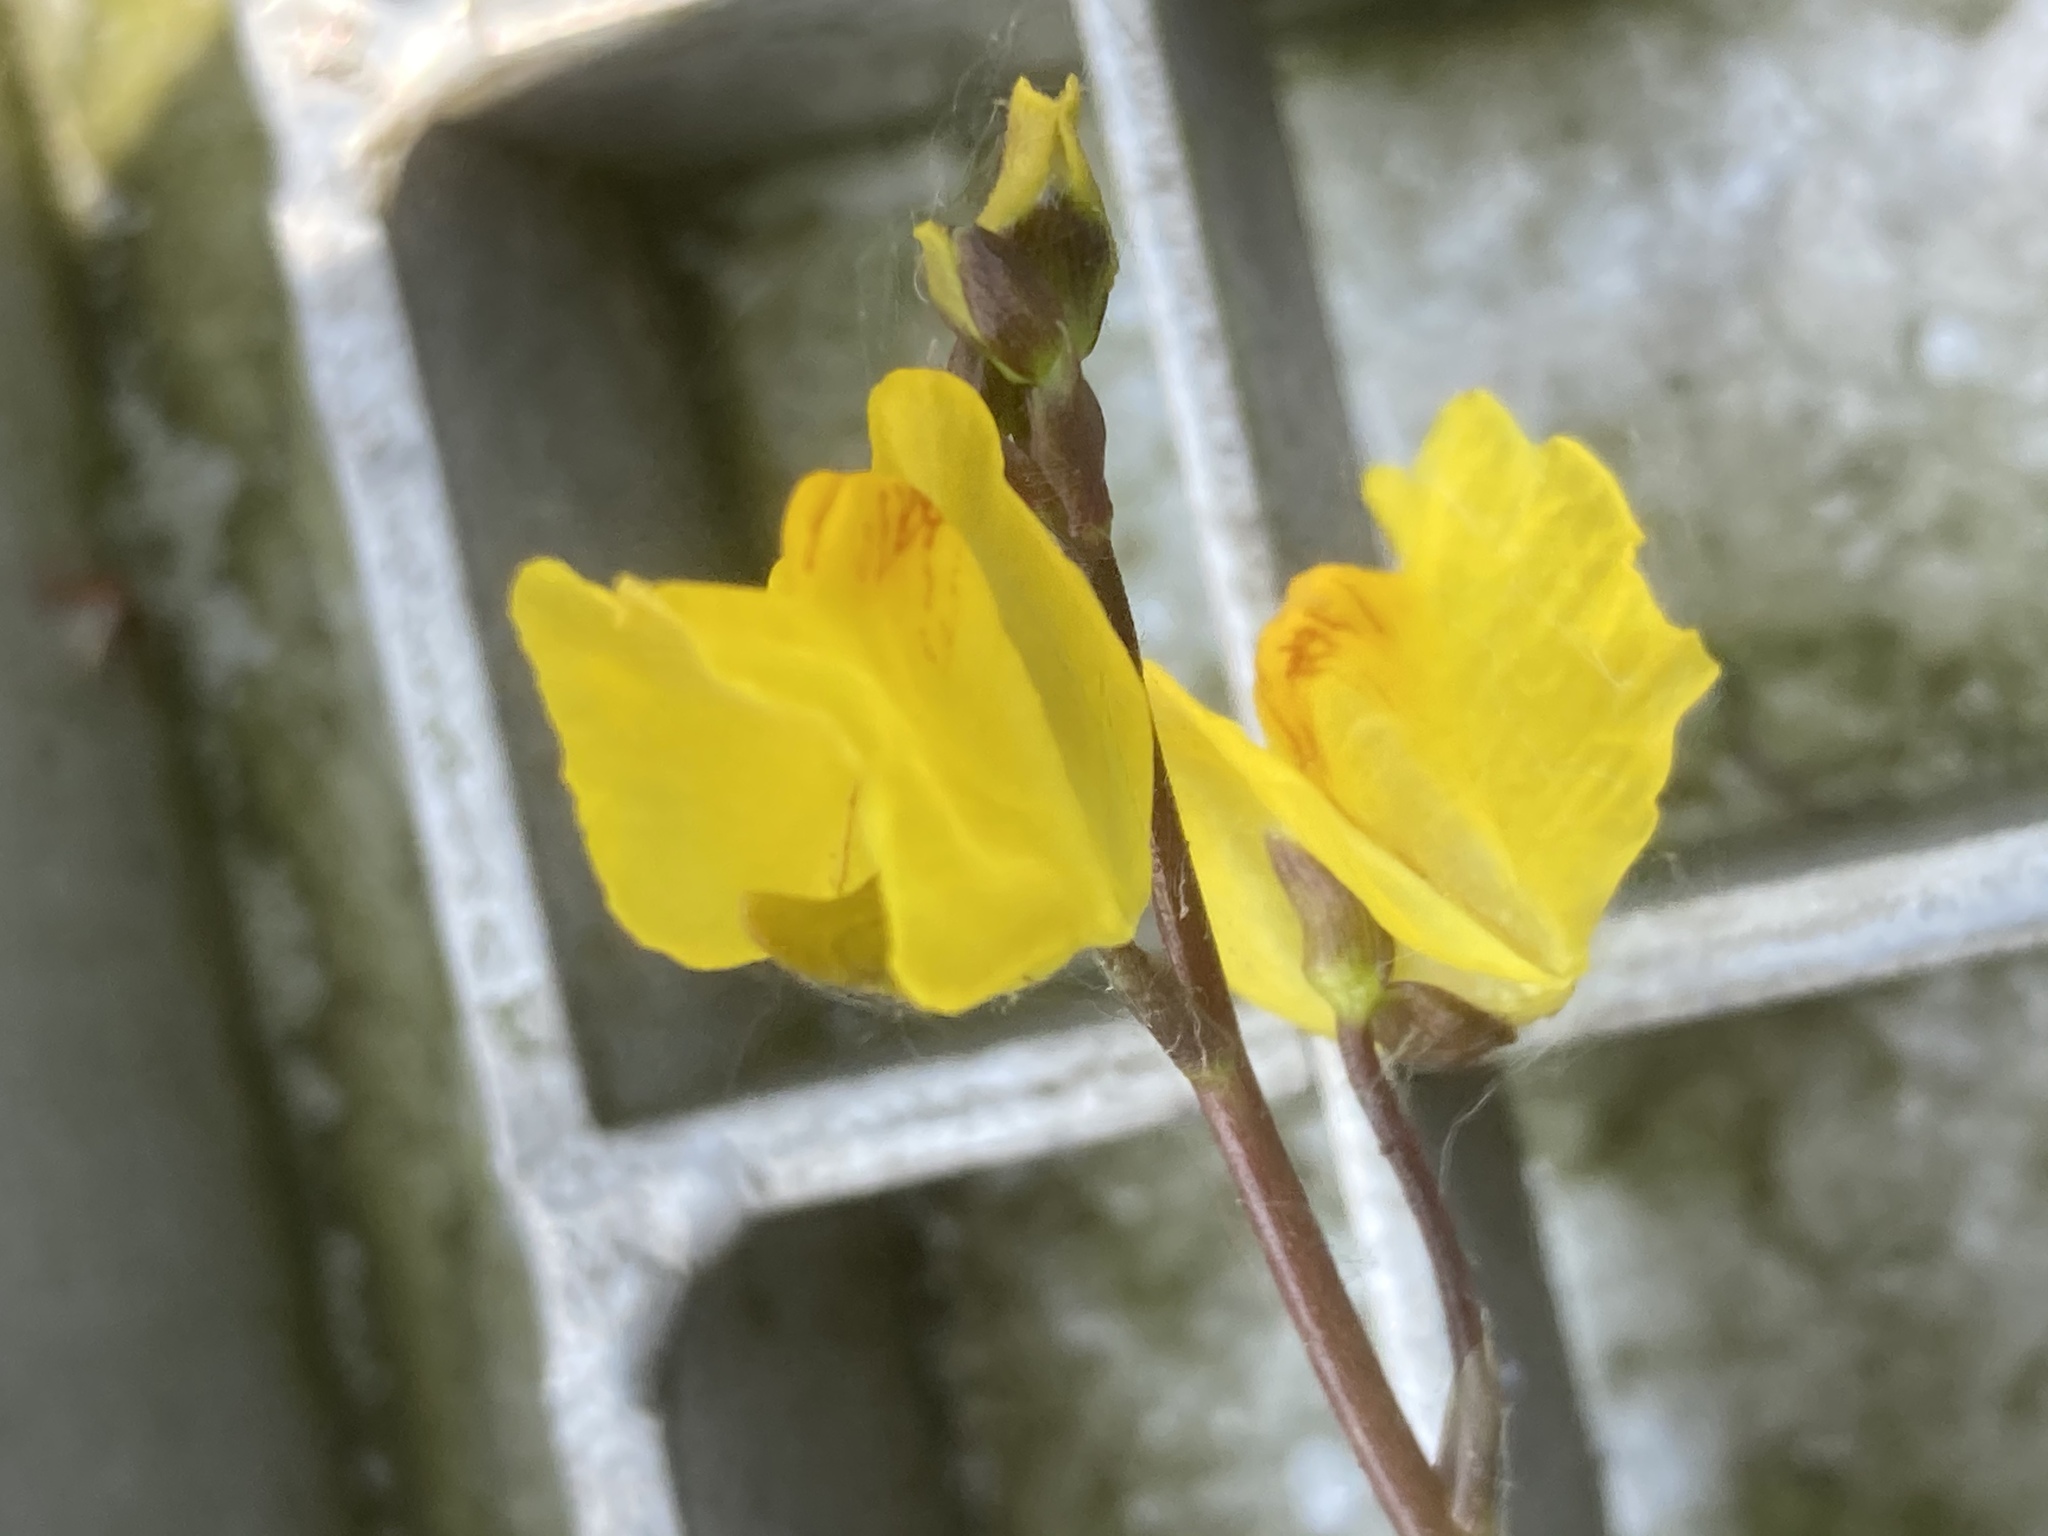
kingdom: Plantae
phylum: Tracheophyta
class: Magnoliopsida
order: Lamiales
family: Lentibulariaceae
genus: Utricularia
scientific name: Utricularia vulgaris
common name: Greater bladderwort
